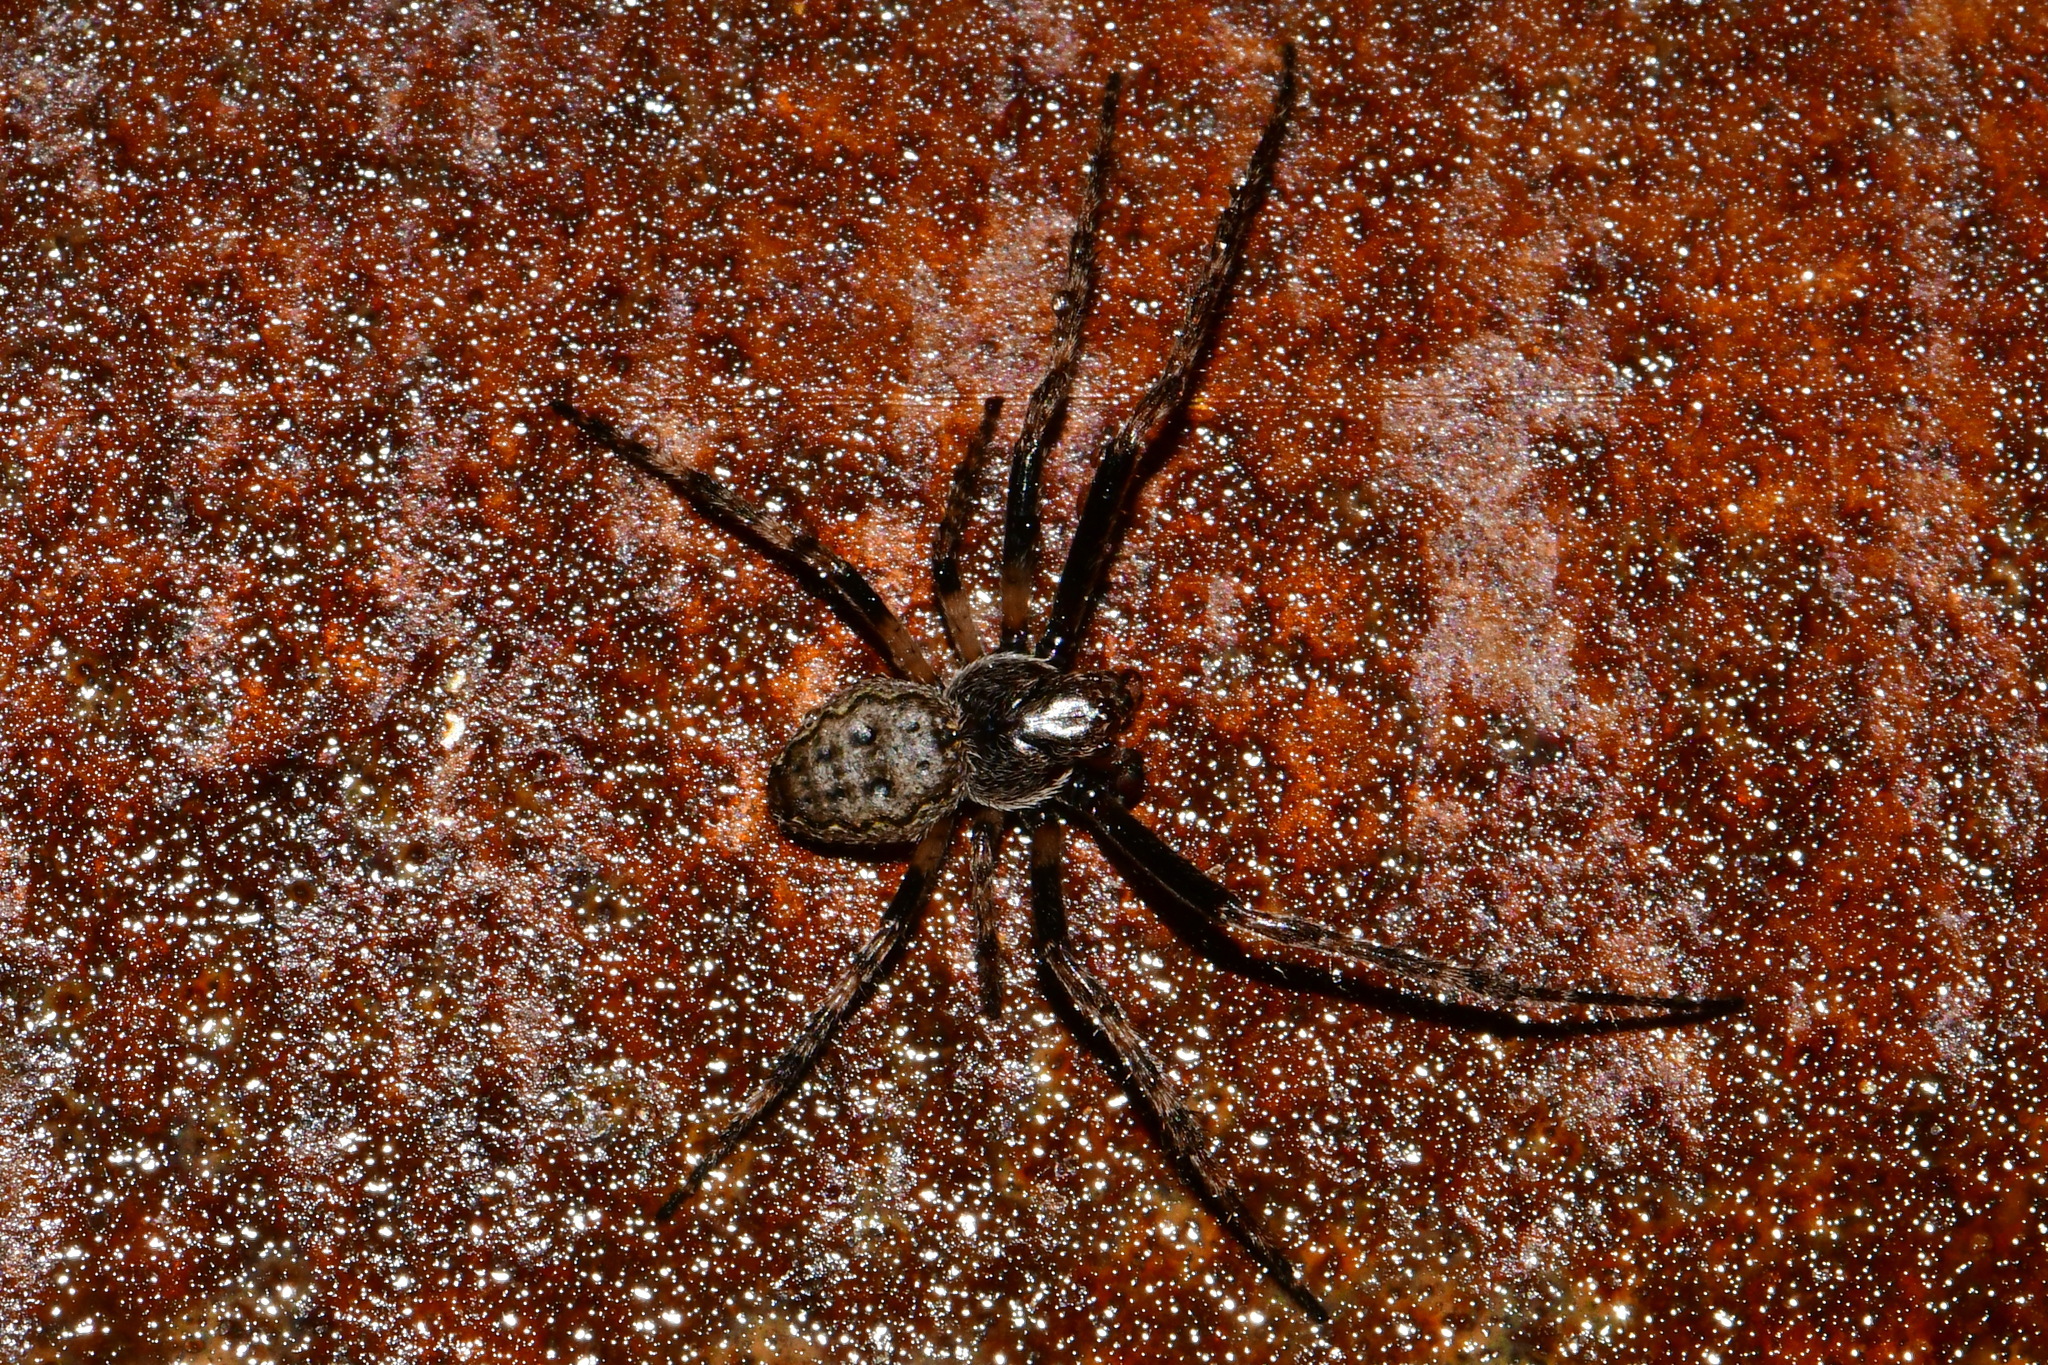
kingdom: Animalia
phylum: Arthropoda
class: Arachnida
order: Araneae
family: Araneidae
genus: Nuctenea
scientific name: Nuctenea umbratica
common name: Toad spider
